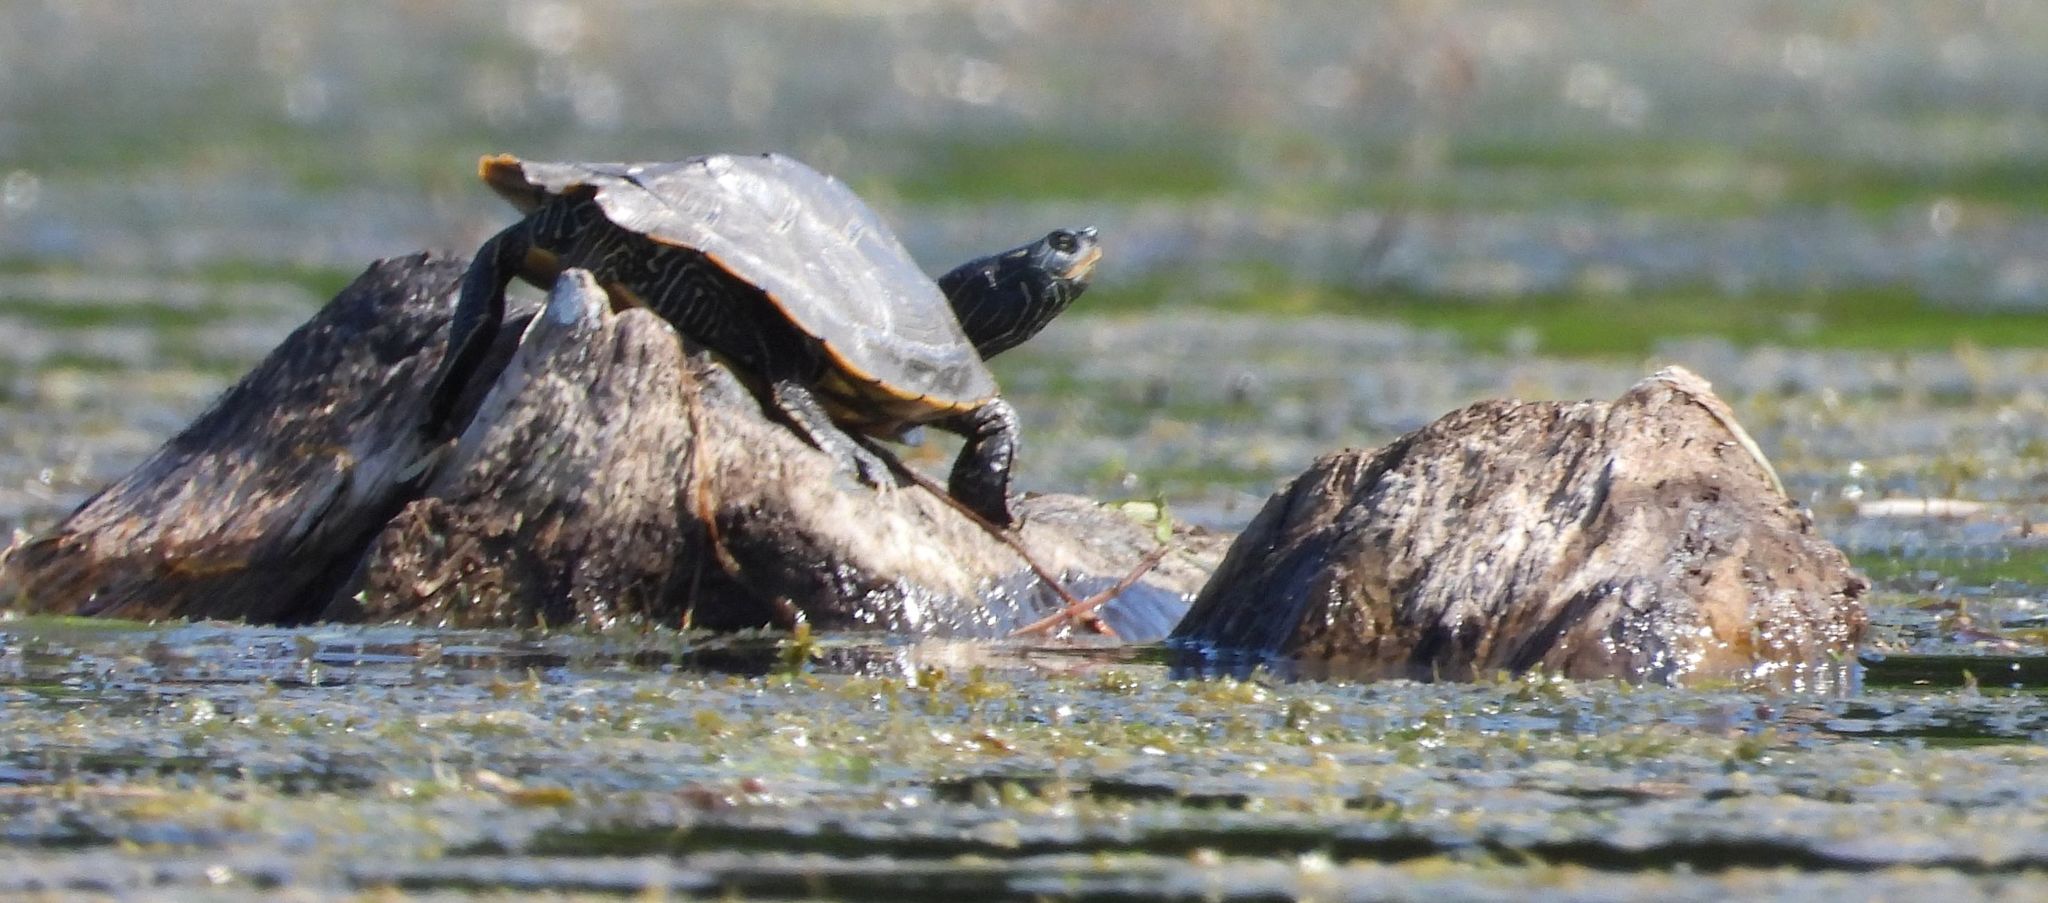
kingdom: Animalia
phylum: Chordata
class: Testudines
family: Emydidae
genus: Graptemys
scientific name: Graptemys geographica
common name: Common map turtle
